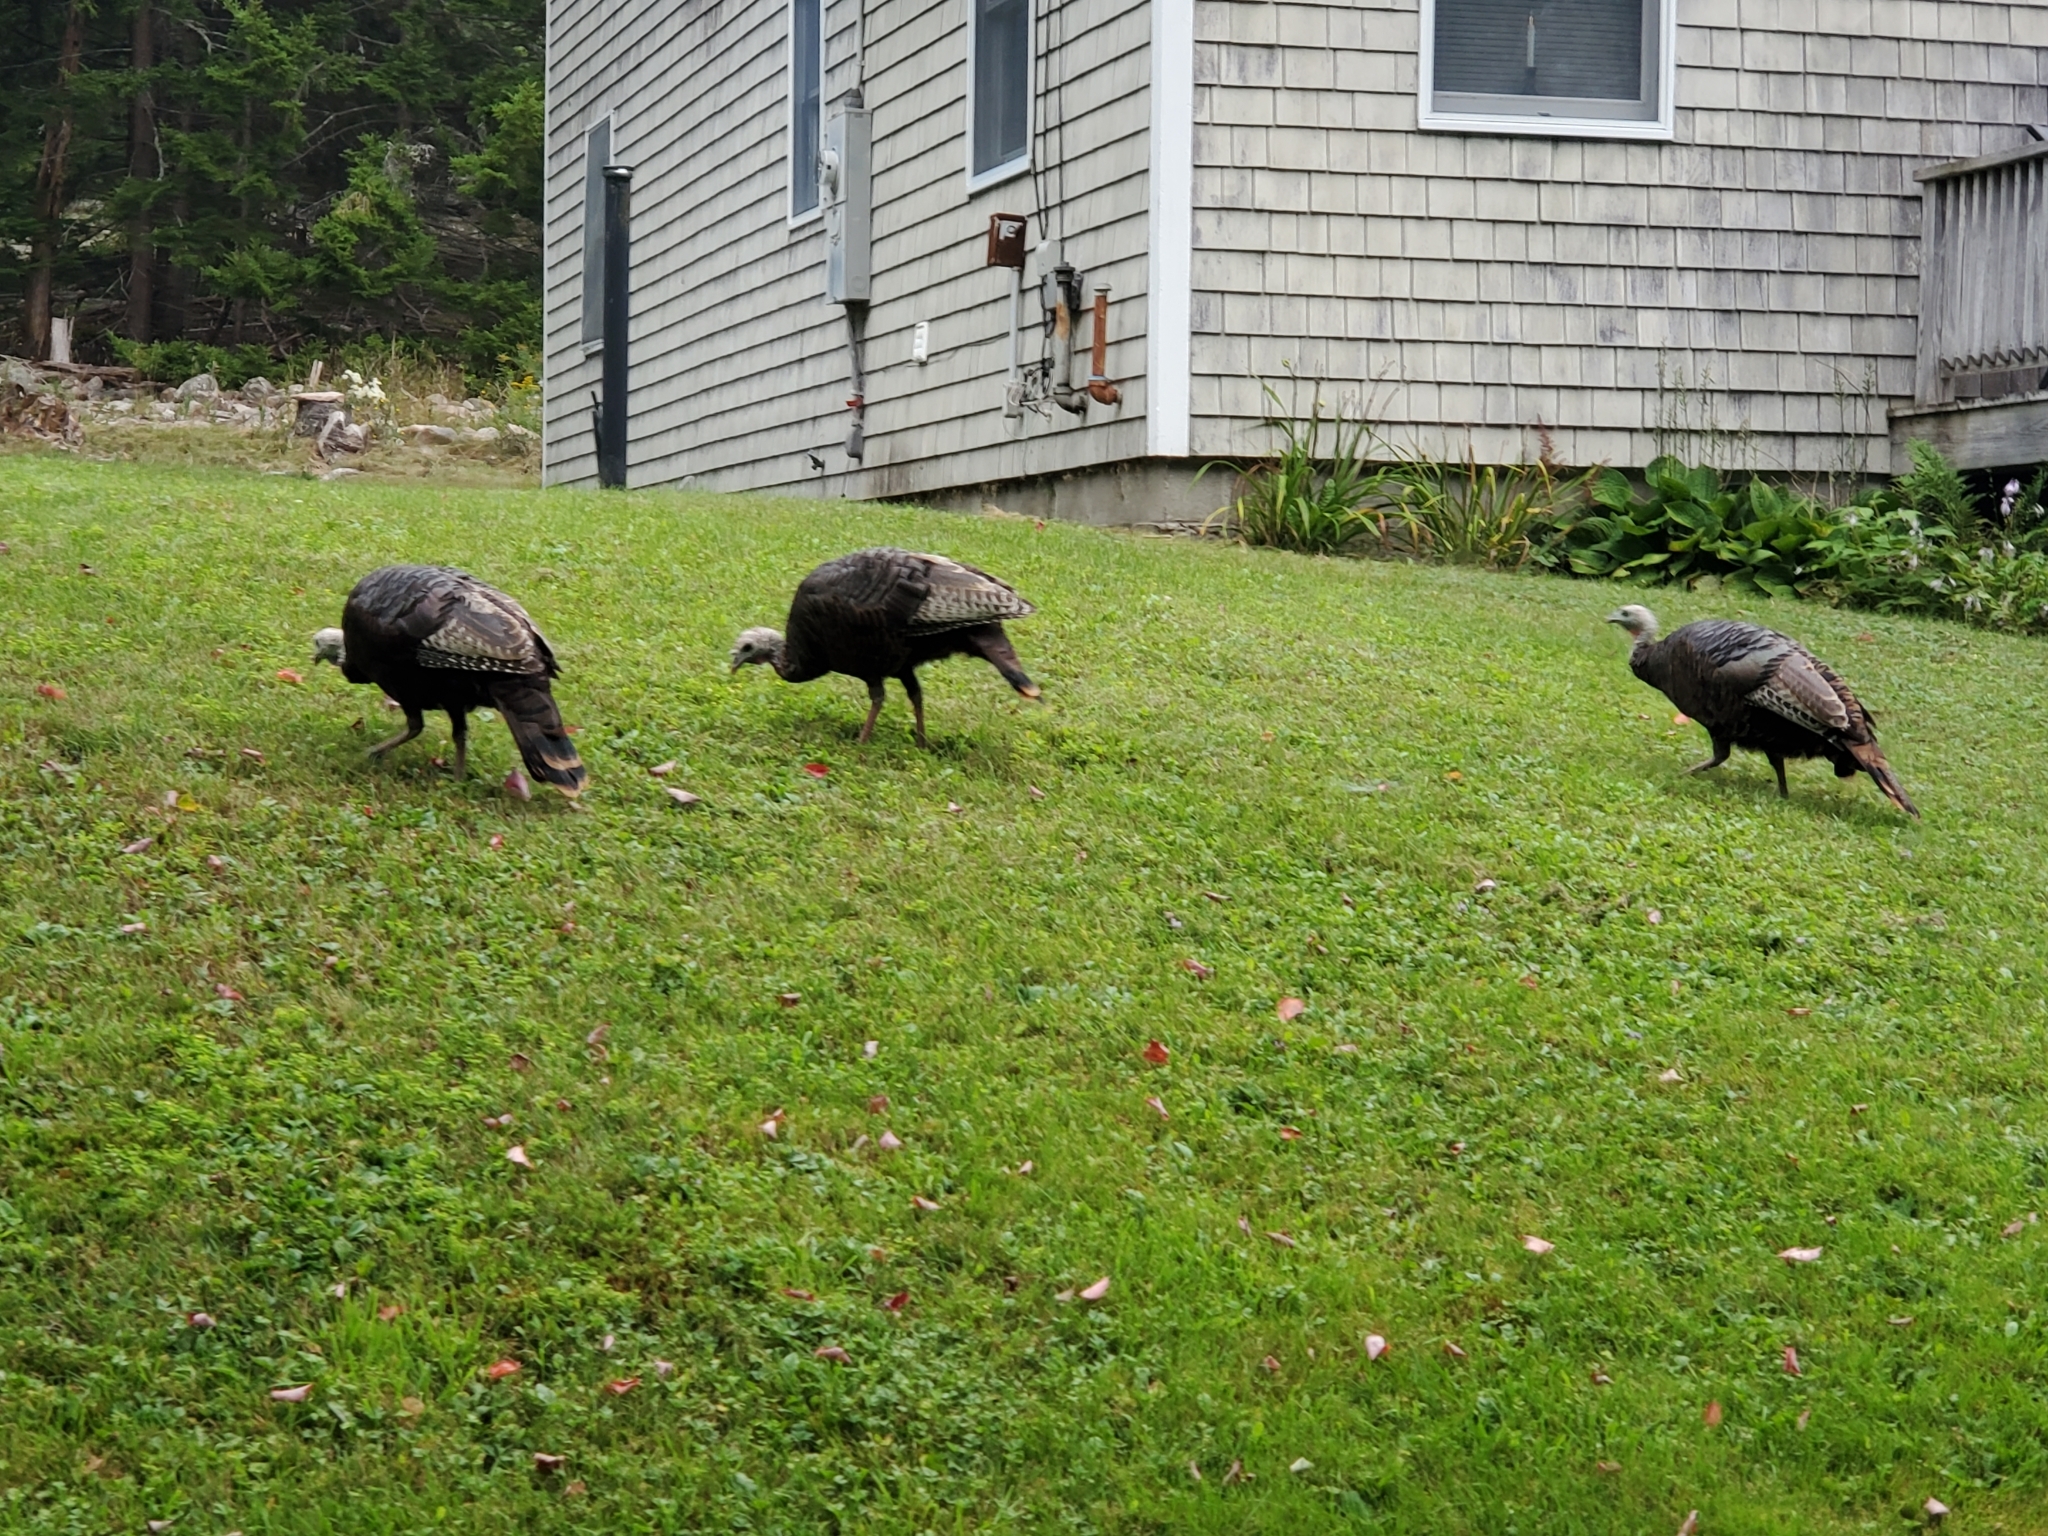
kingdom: Animalia
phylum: Chordata
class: Aves
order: Galliformes
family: Phasianidae
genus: Meleagris
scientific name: Meleagris gallopavo
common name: Wild turkey
